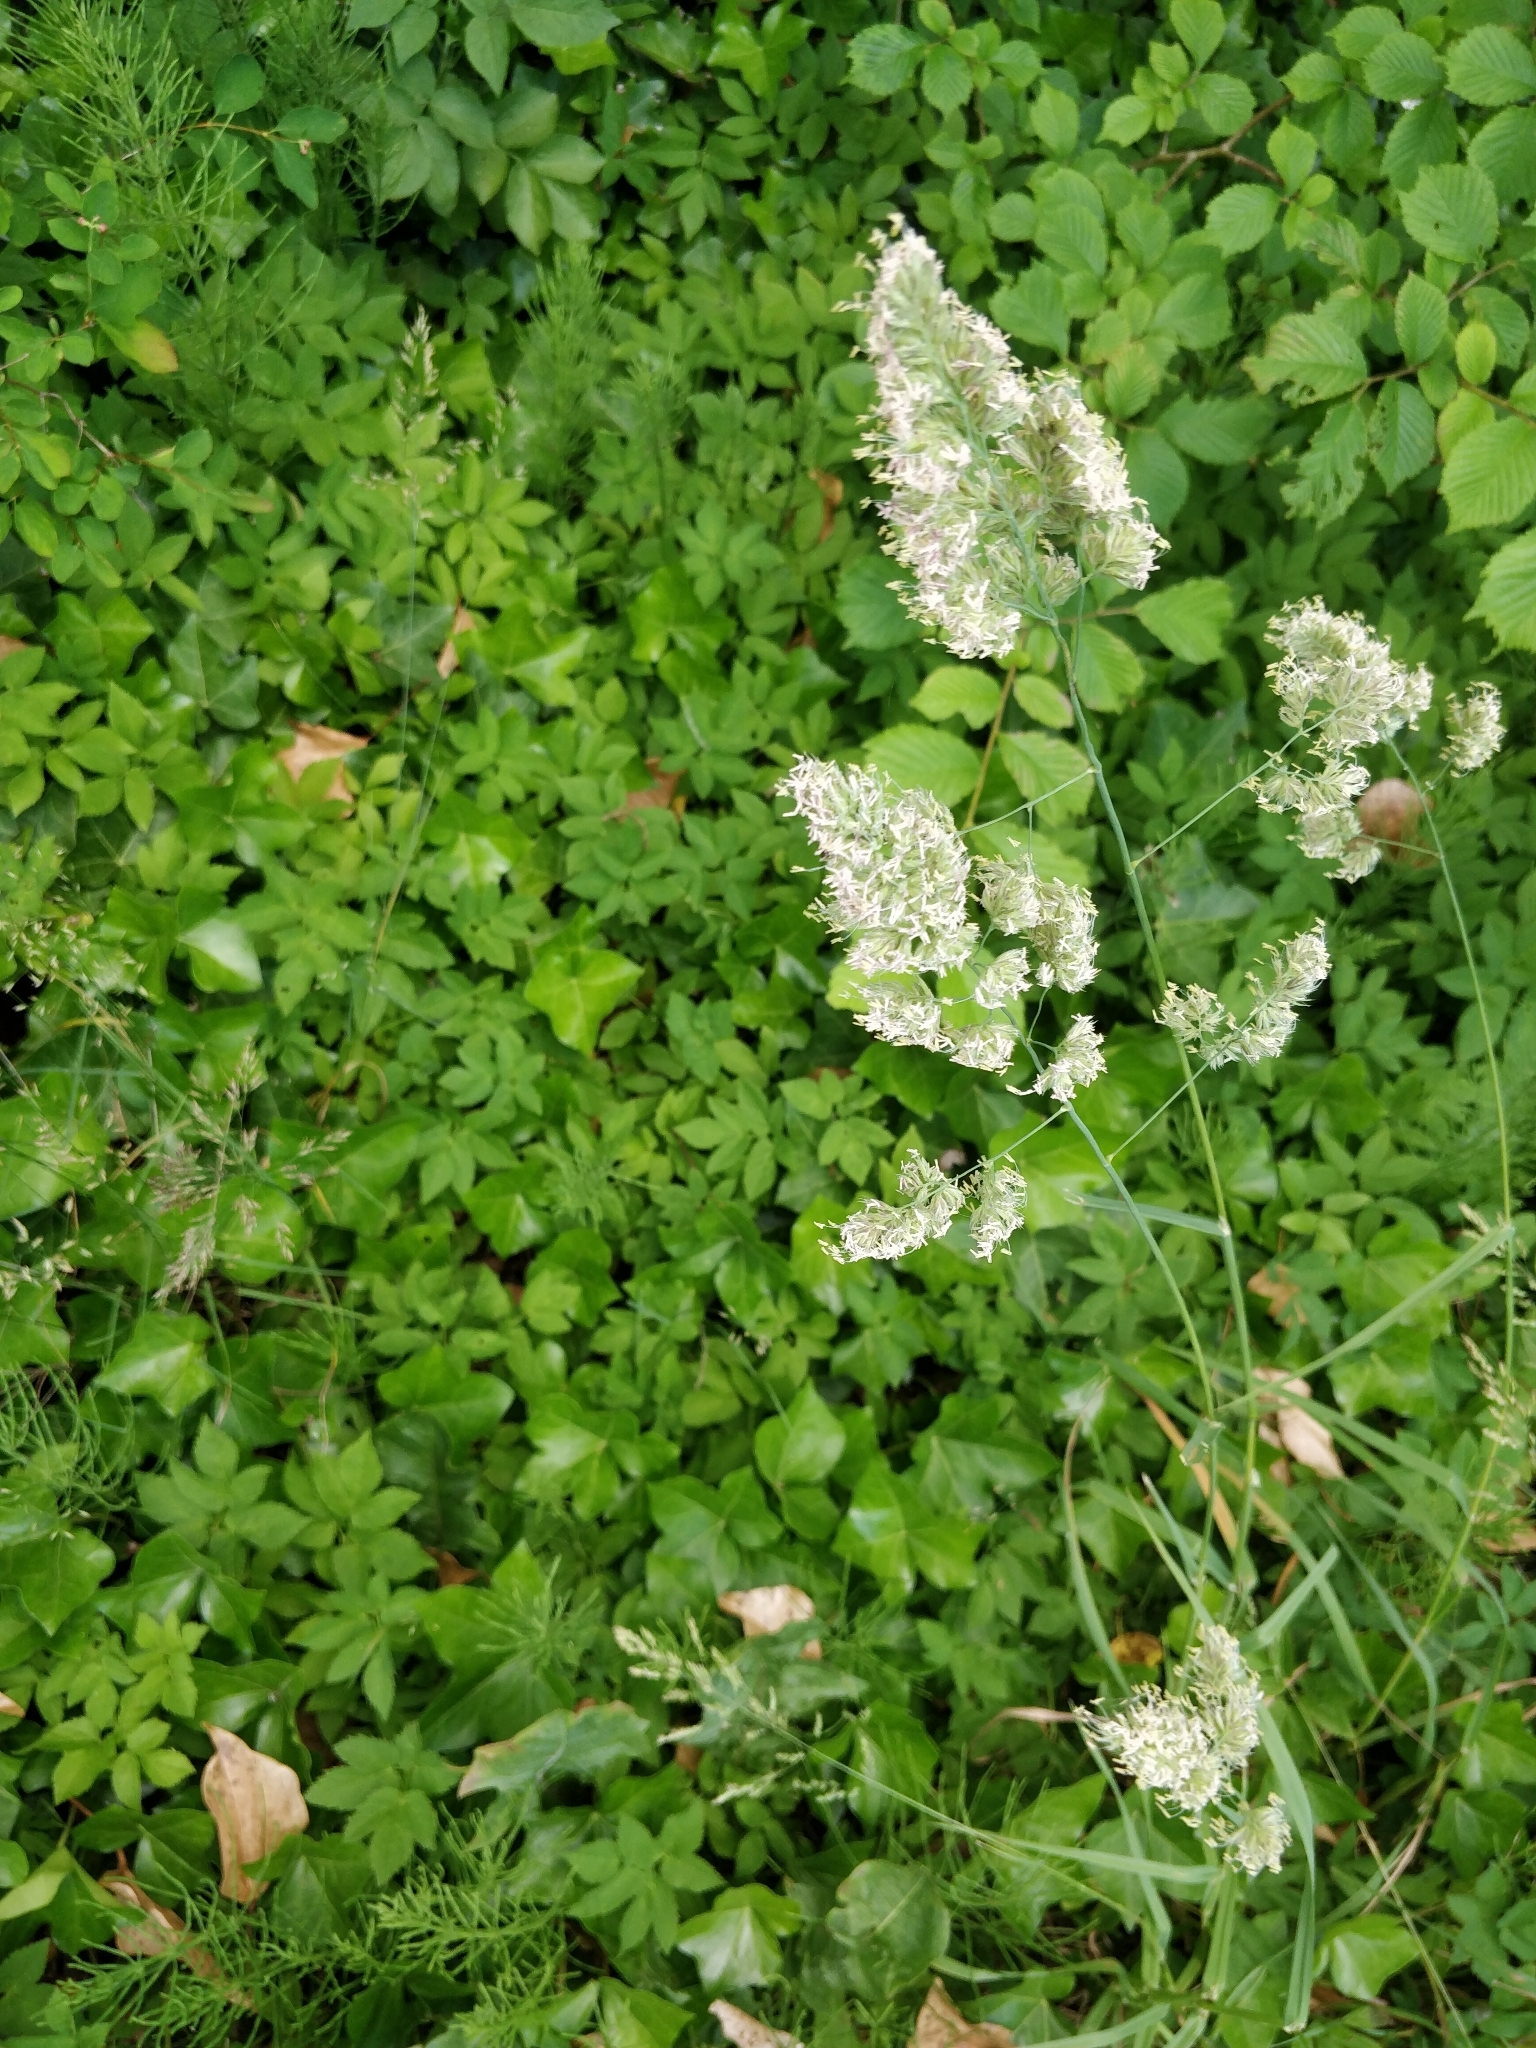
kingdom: Plantae
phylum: Tracheophyta
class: Liliopsida
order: Poales
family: Poaceae
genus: Dactylis
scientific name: Dactylis glomerata
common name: Orchardgrass
